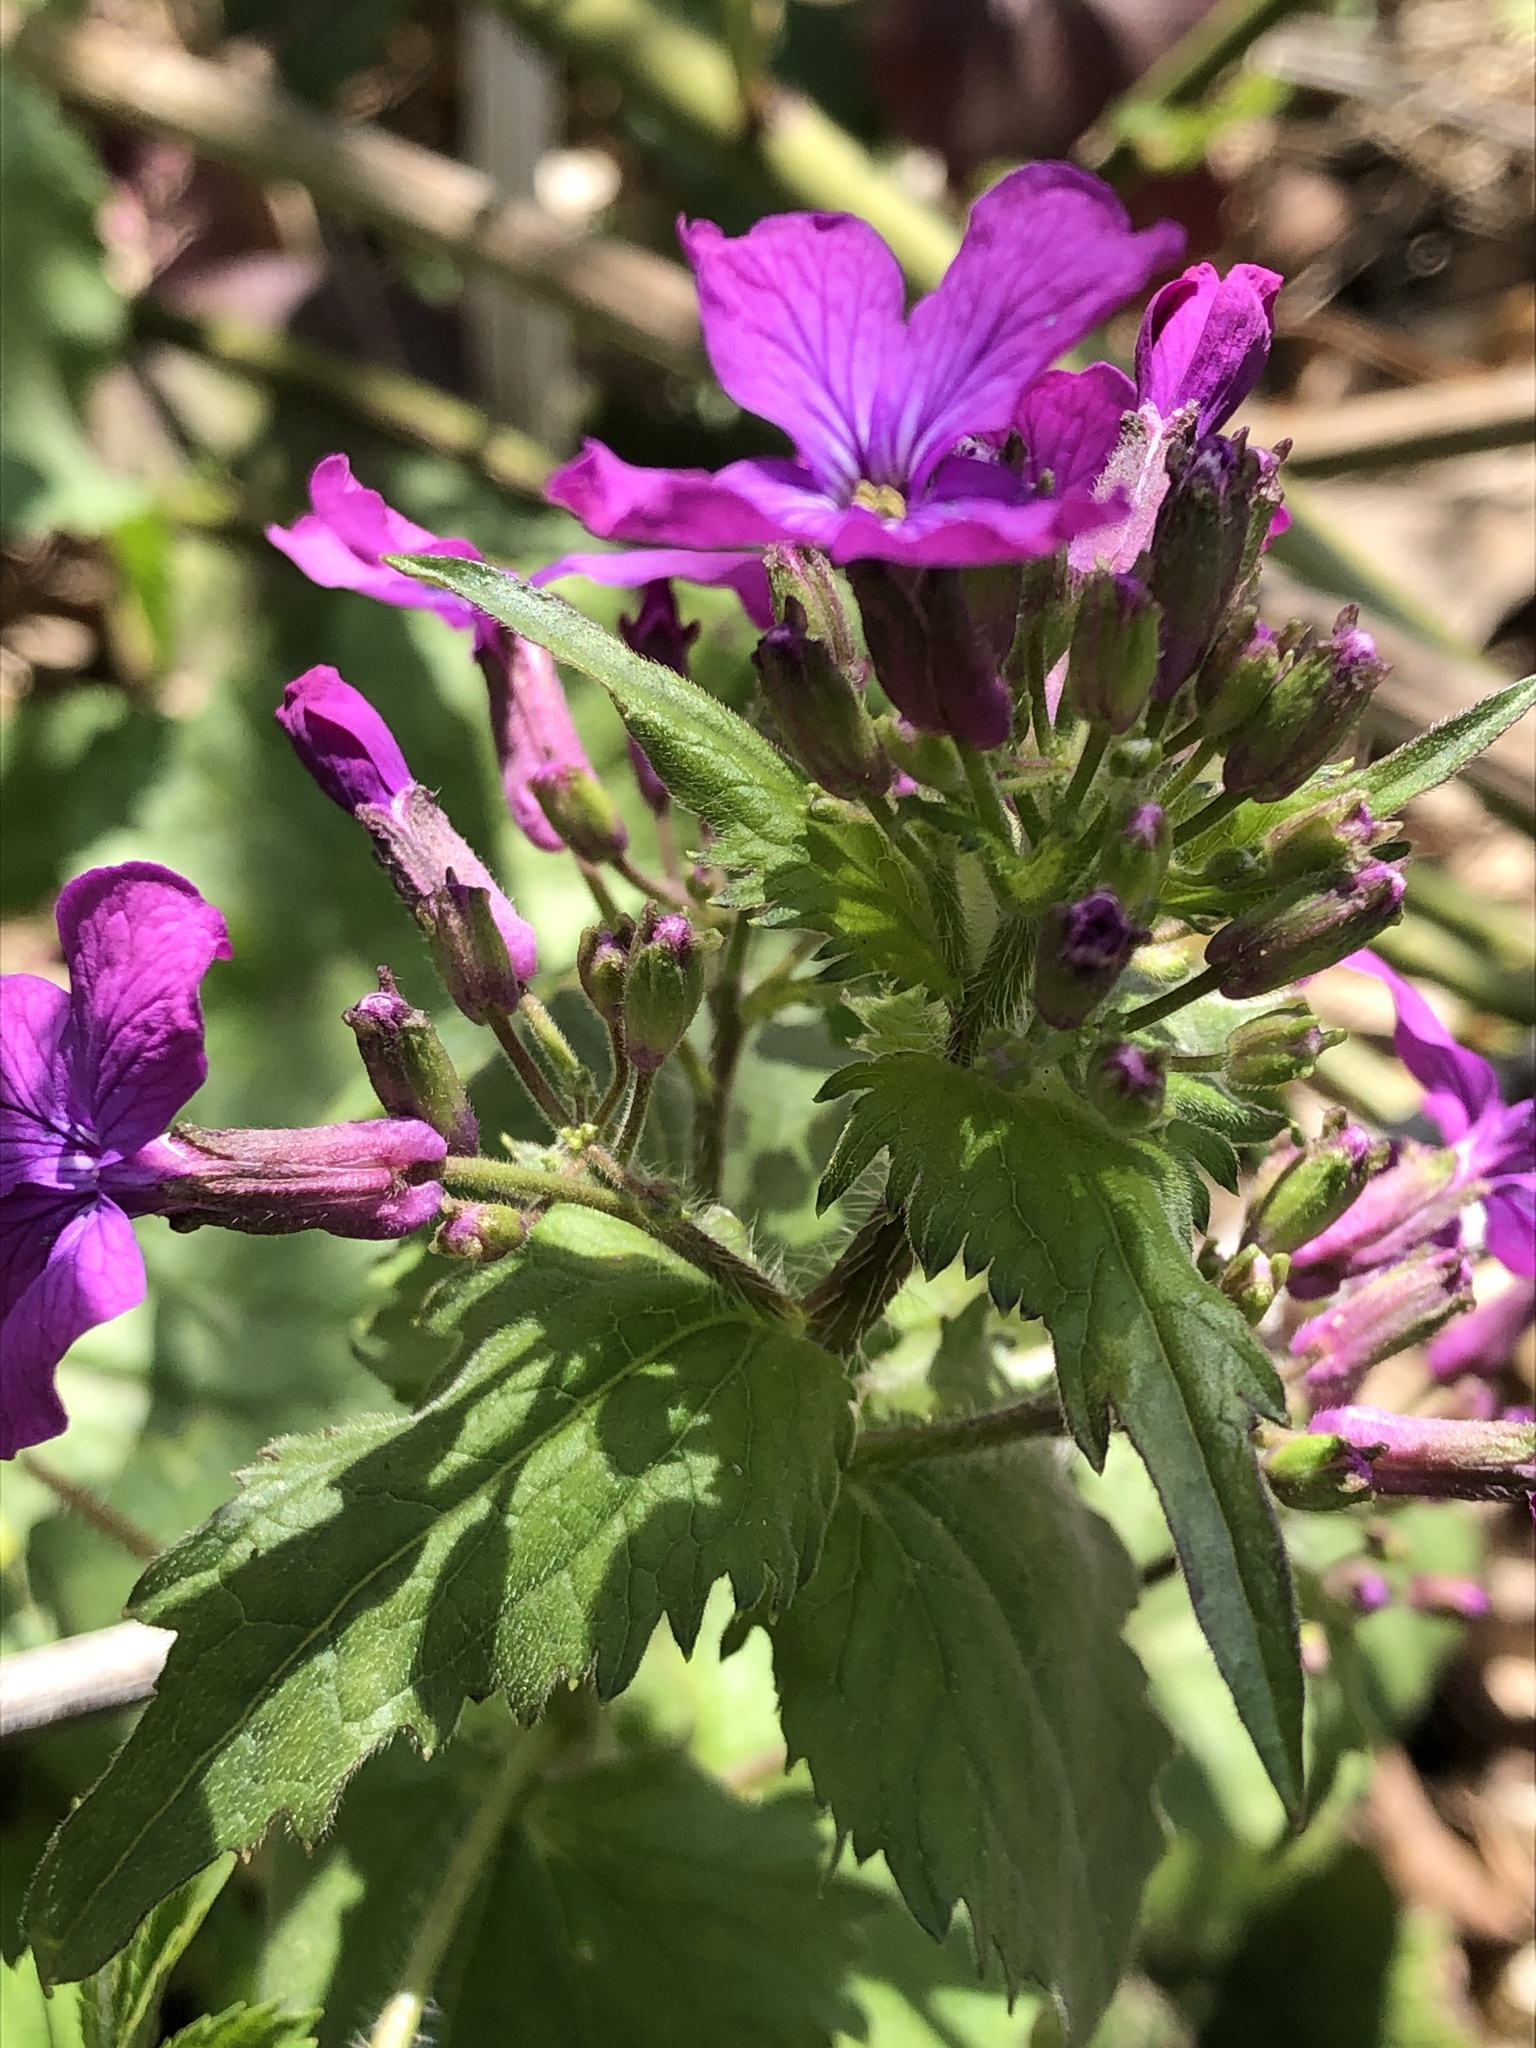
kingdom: Plantae
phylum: Tracheophyta
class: Magnoliopsida
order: Brassicales
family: Brassicaceae
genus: Lunaria
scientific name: Lunaria annua
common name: Honesty
